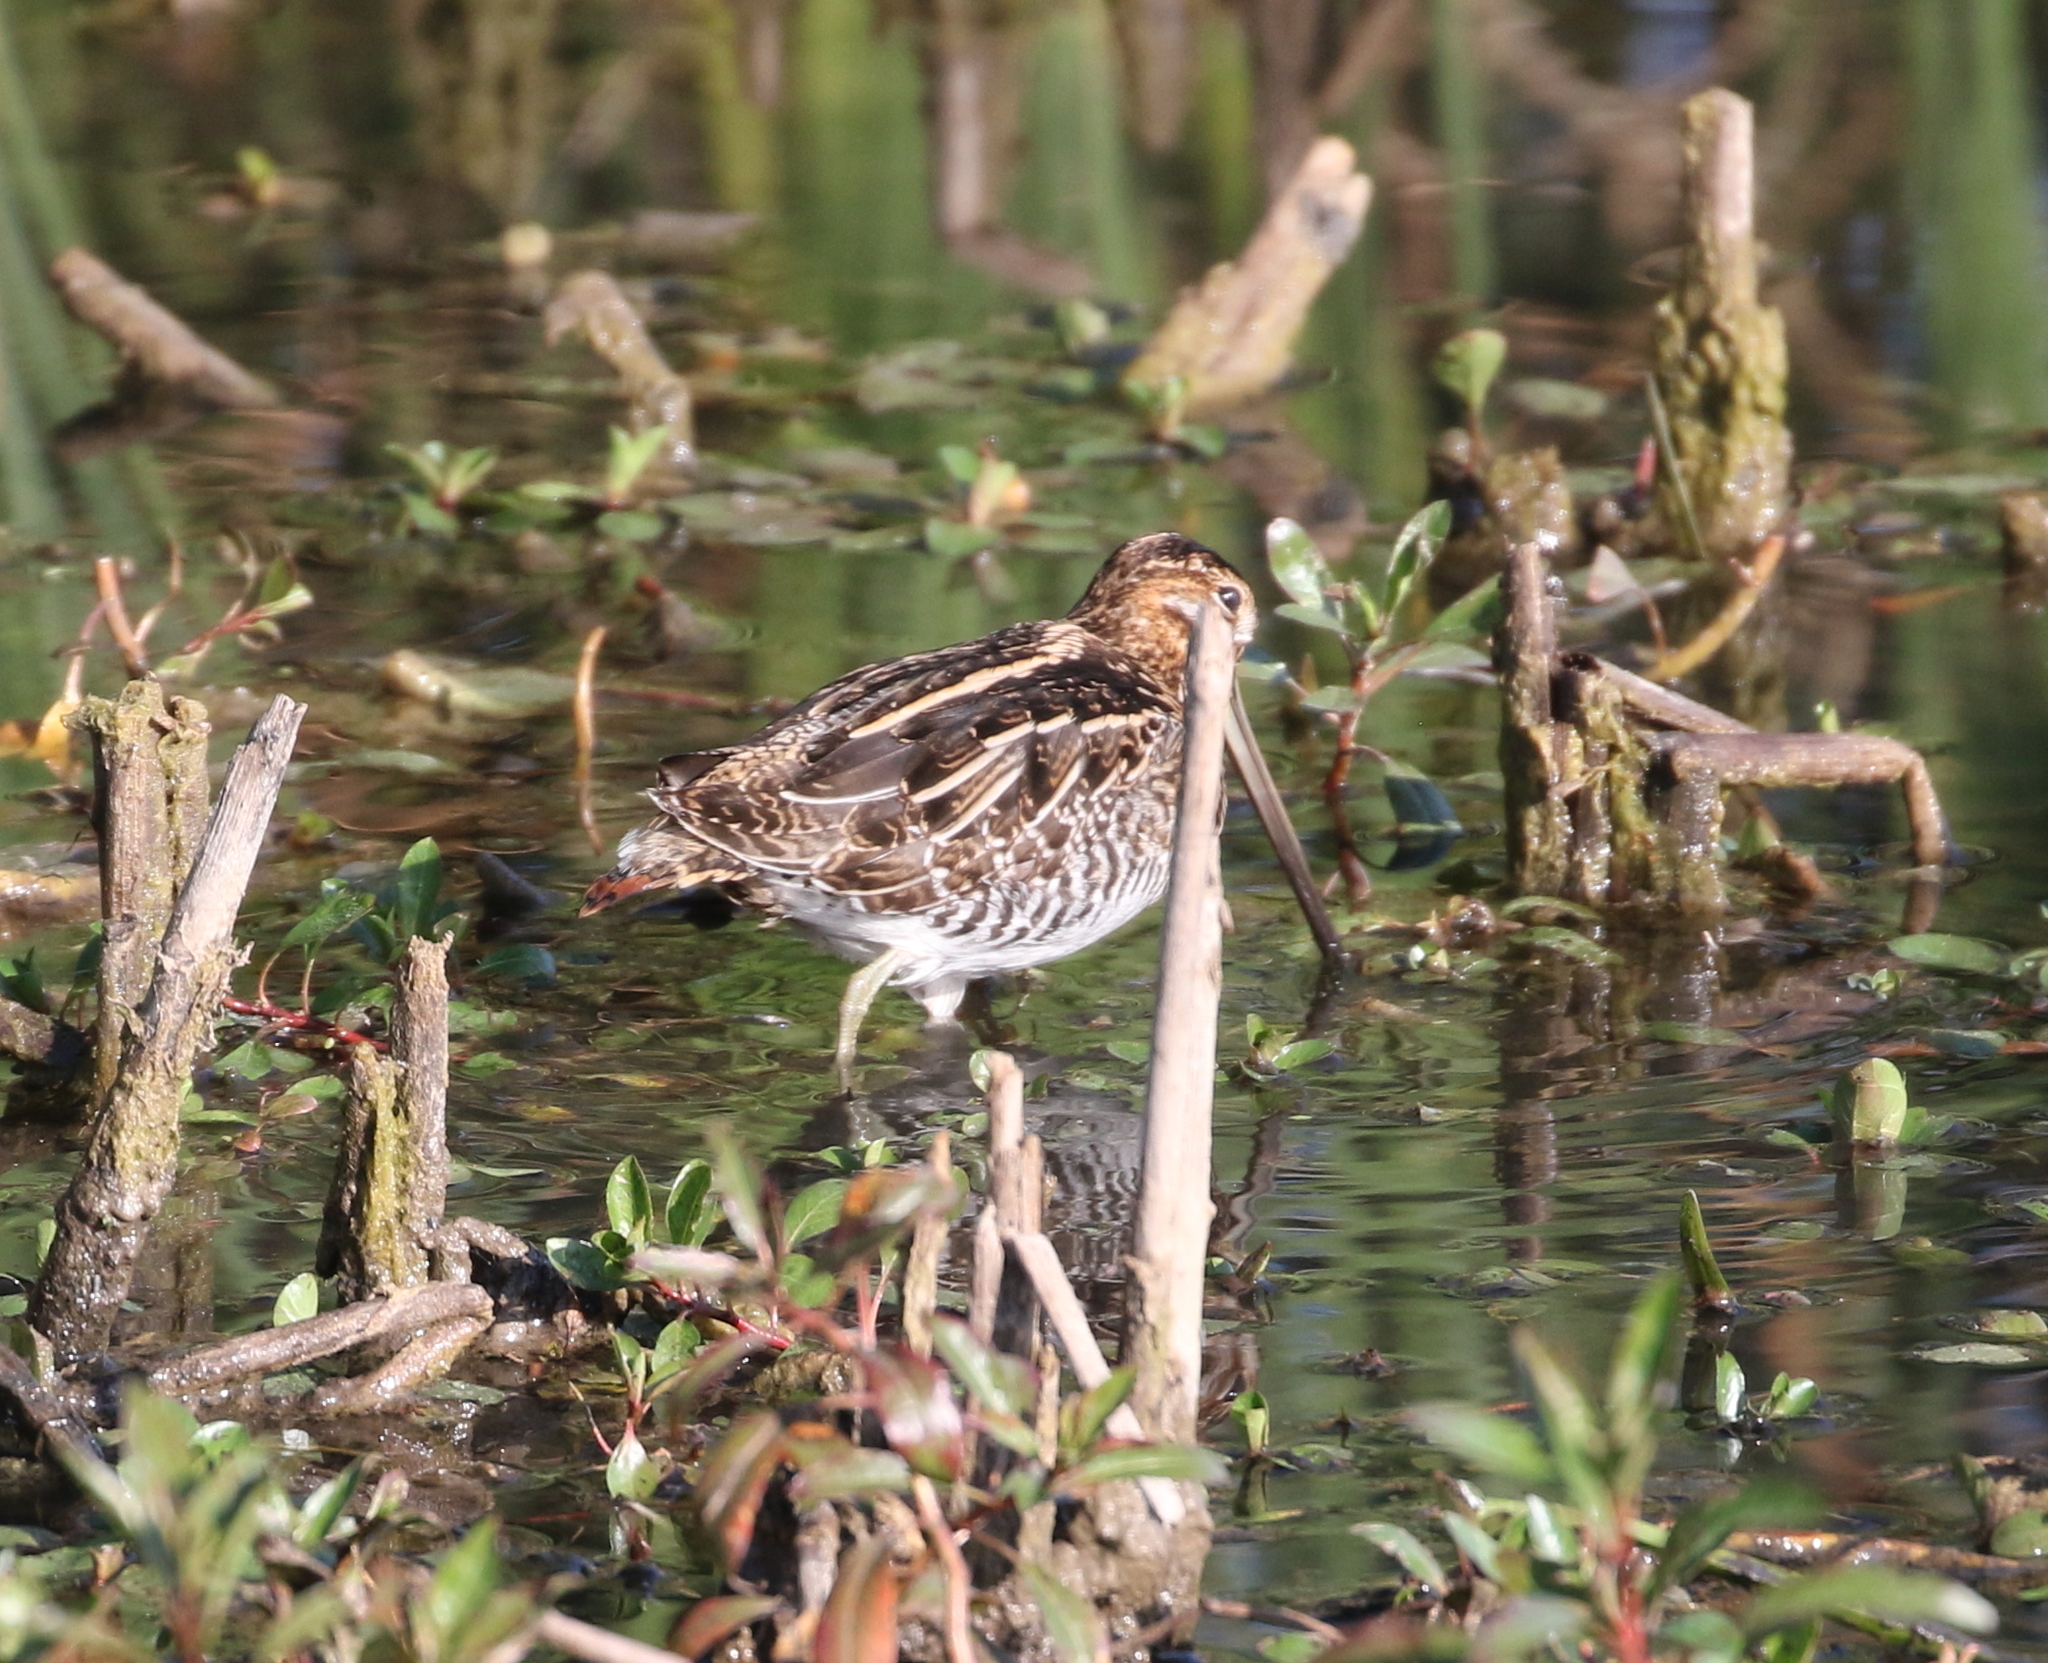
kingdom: Animalia
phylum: Chordata
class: Aves
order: Charadriiformes
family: Scolopacidae
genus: Gallinago
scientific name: Gallinago delicata
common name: Wilson's snipe
